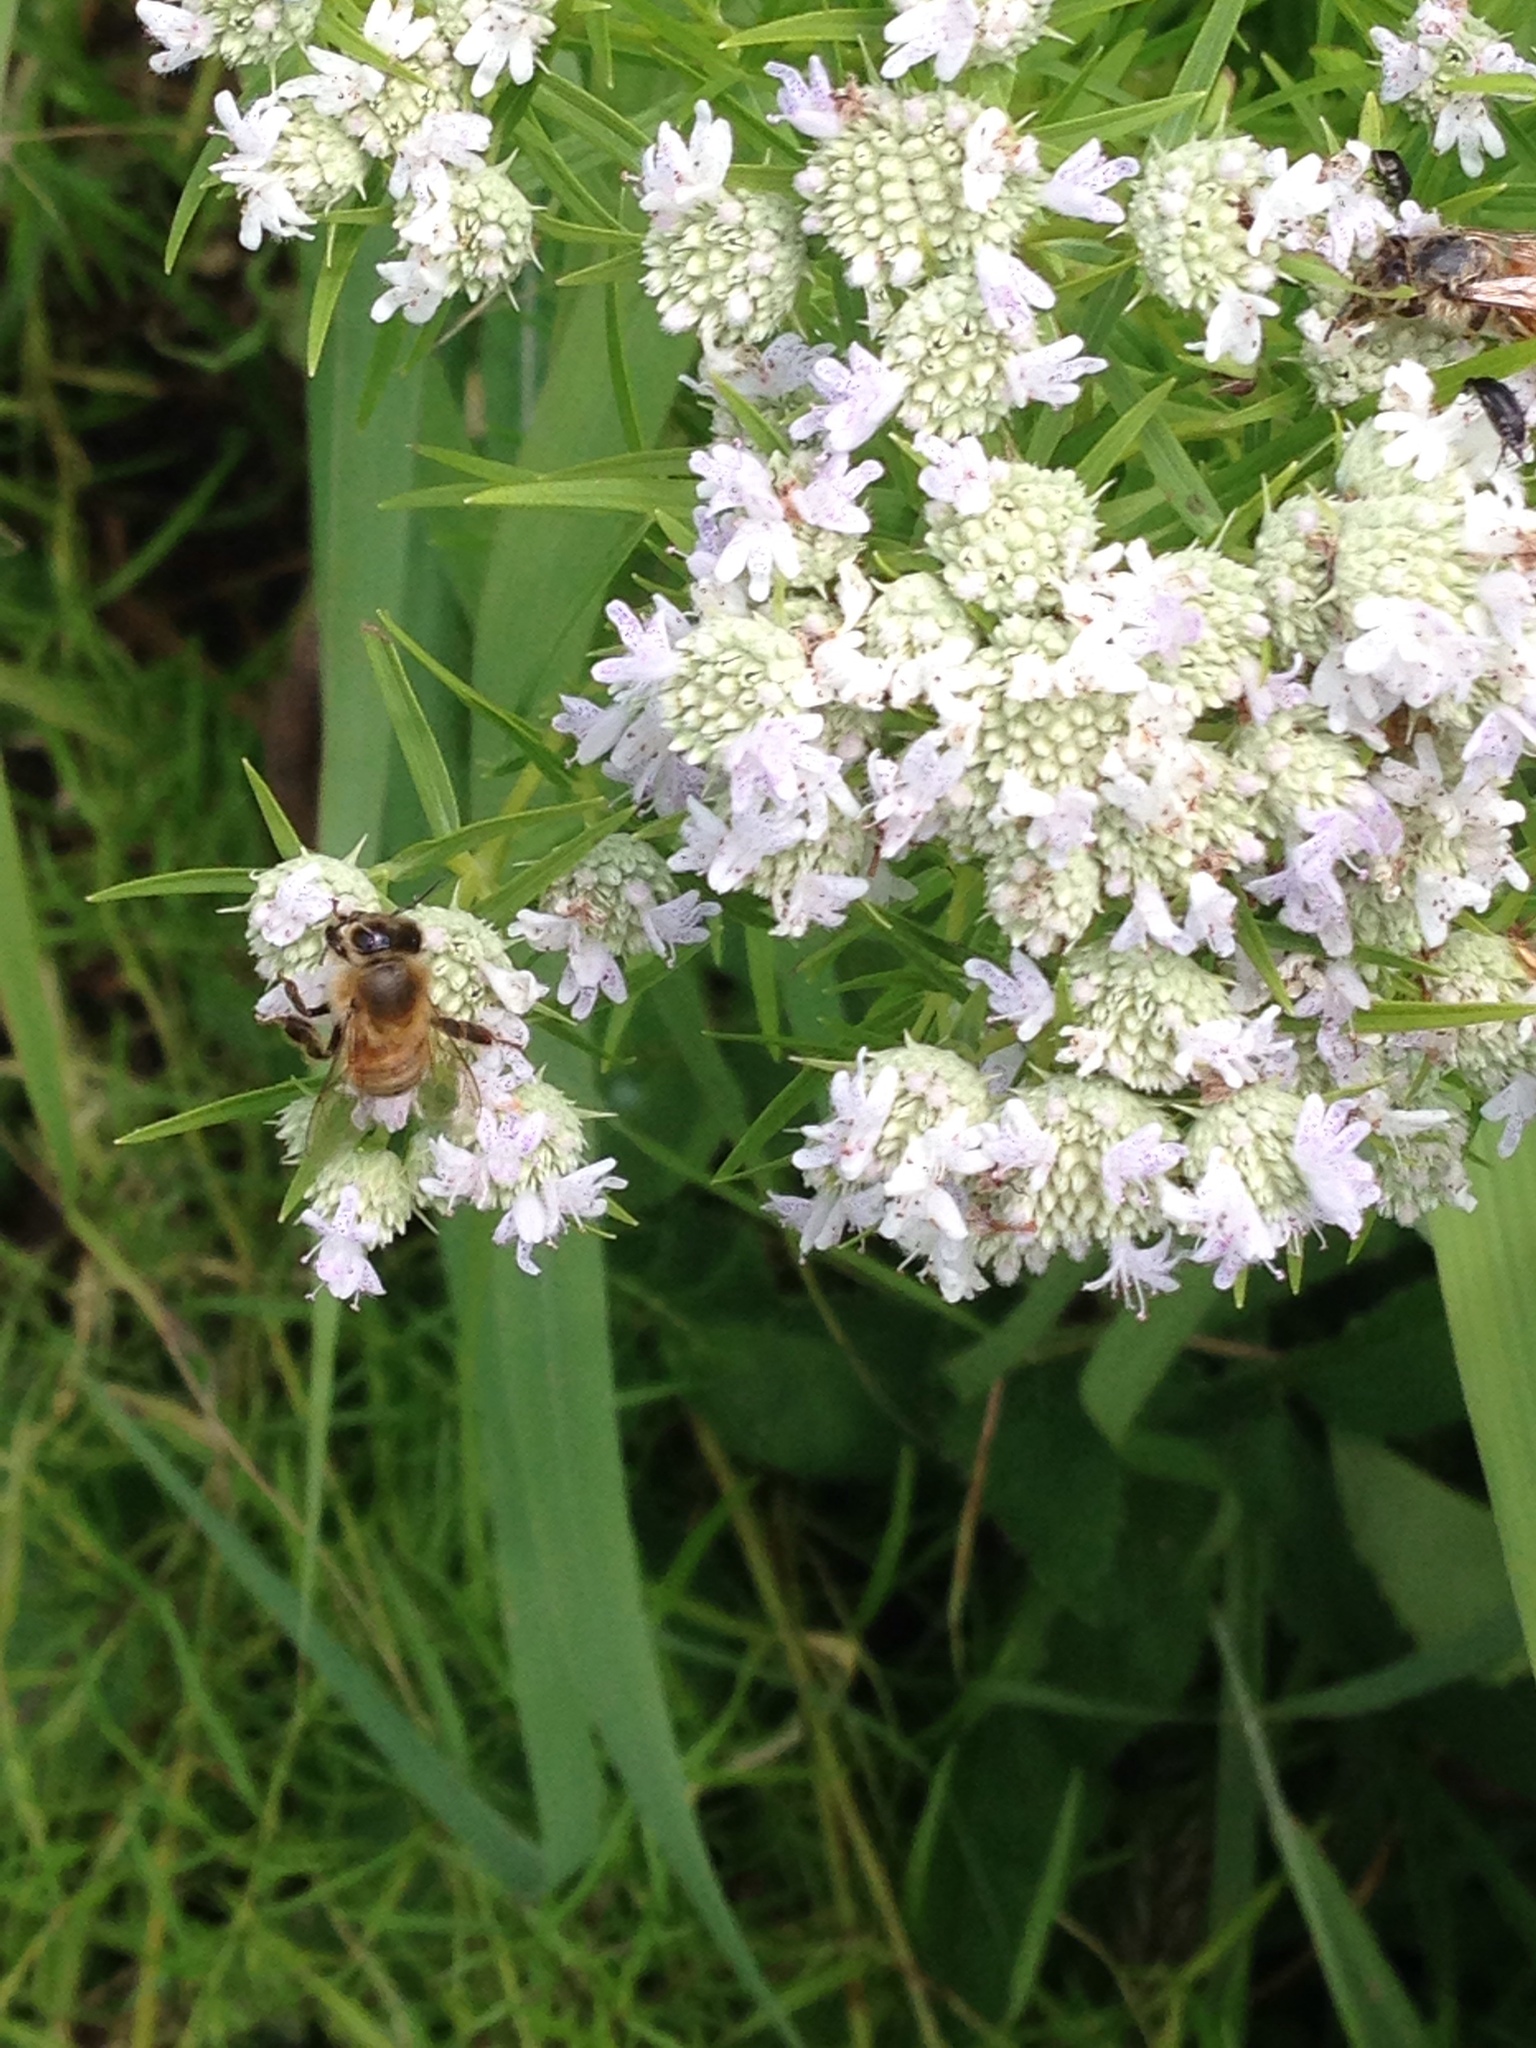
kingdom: Animalia
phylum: Arthropoda
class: Insecta
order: Hymenoptera
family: Apidae
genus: Apis
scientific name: Apis mellifera
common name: Honey bee
